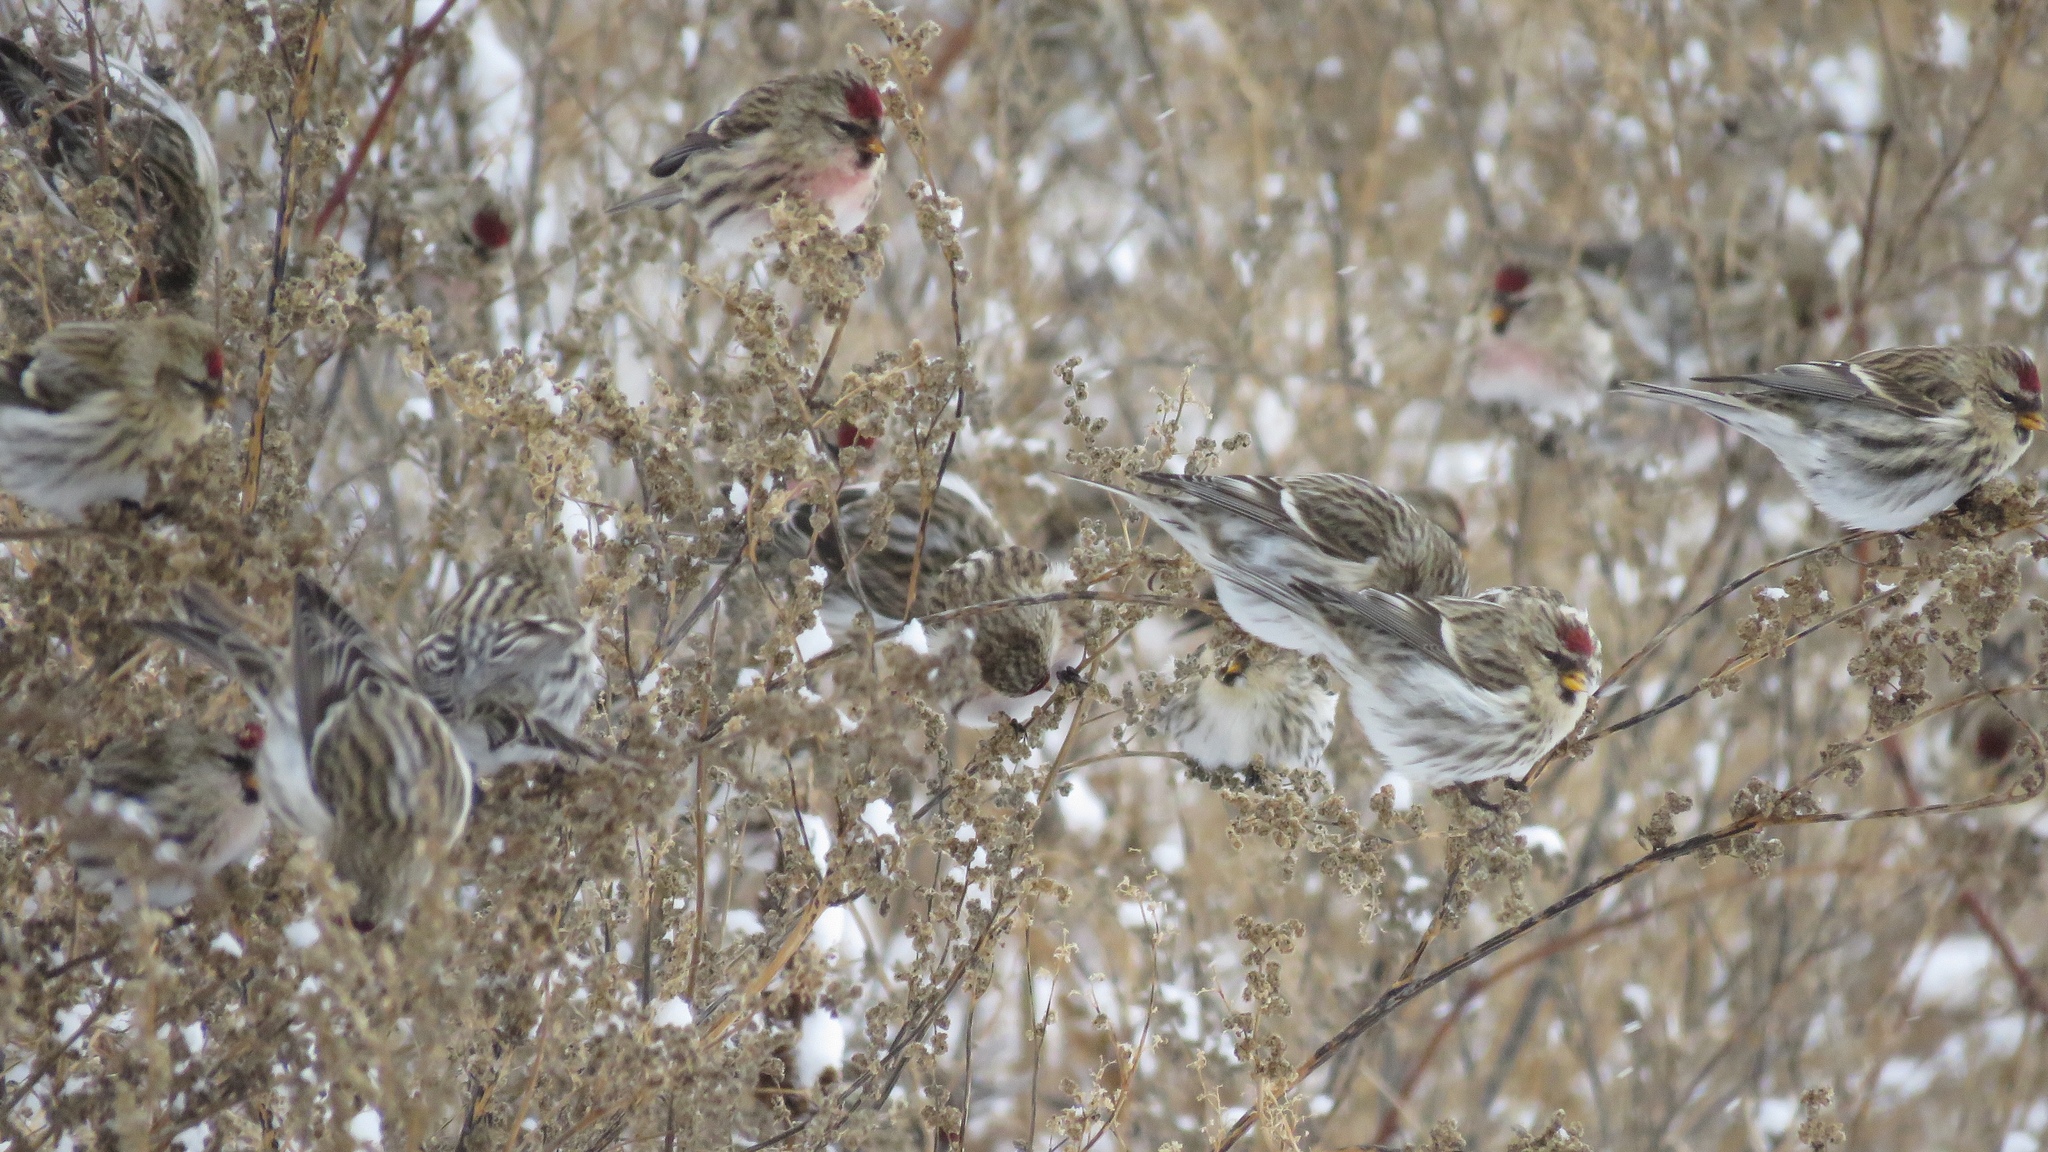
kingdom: Animalia
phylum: Chordata
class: Aves
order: Passeriformes
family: Fringillidae
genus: Acanthis
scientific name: Acanthis flammea
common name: Common redpoll
